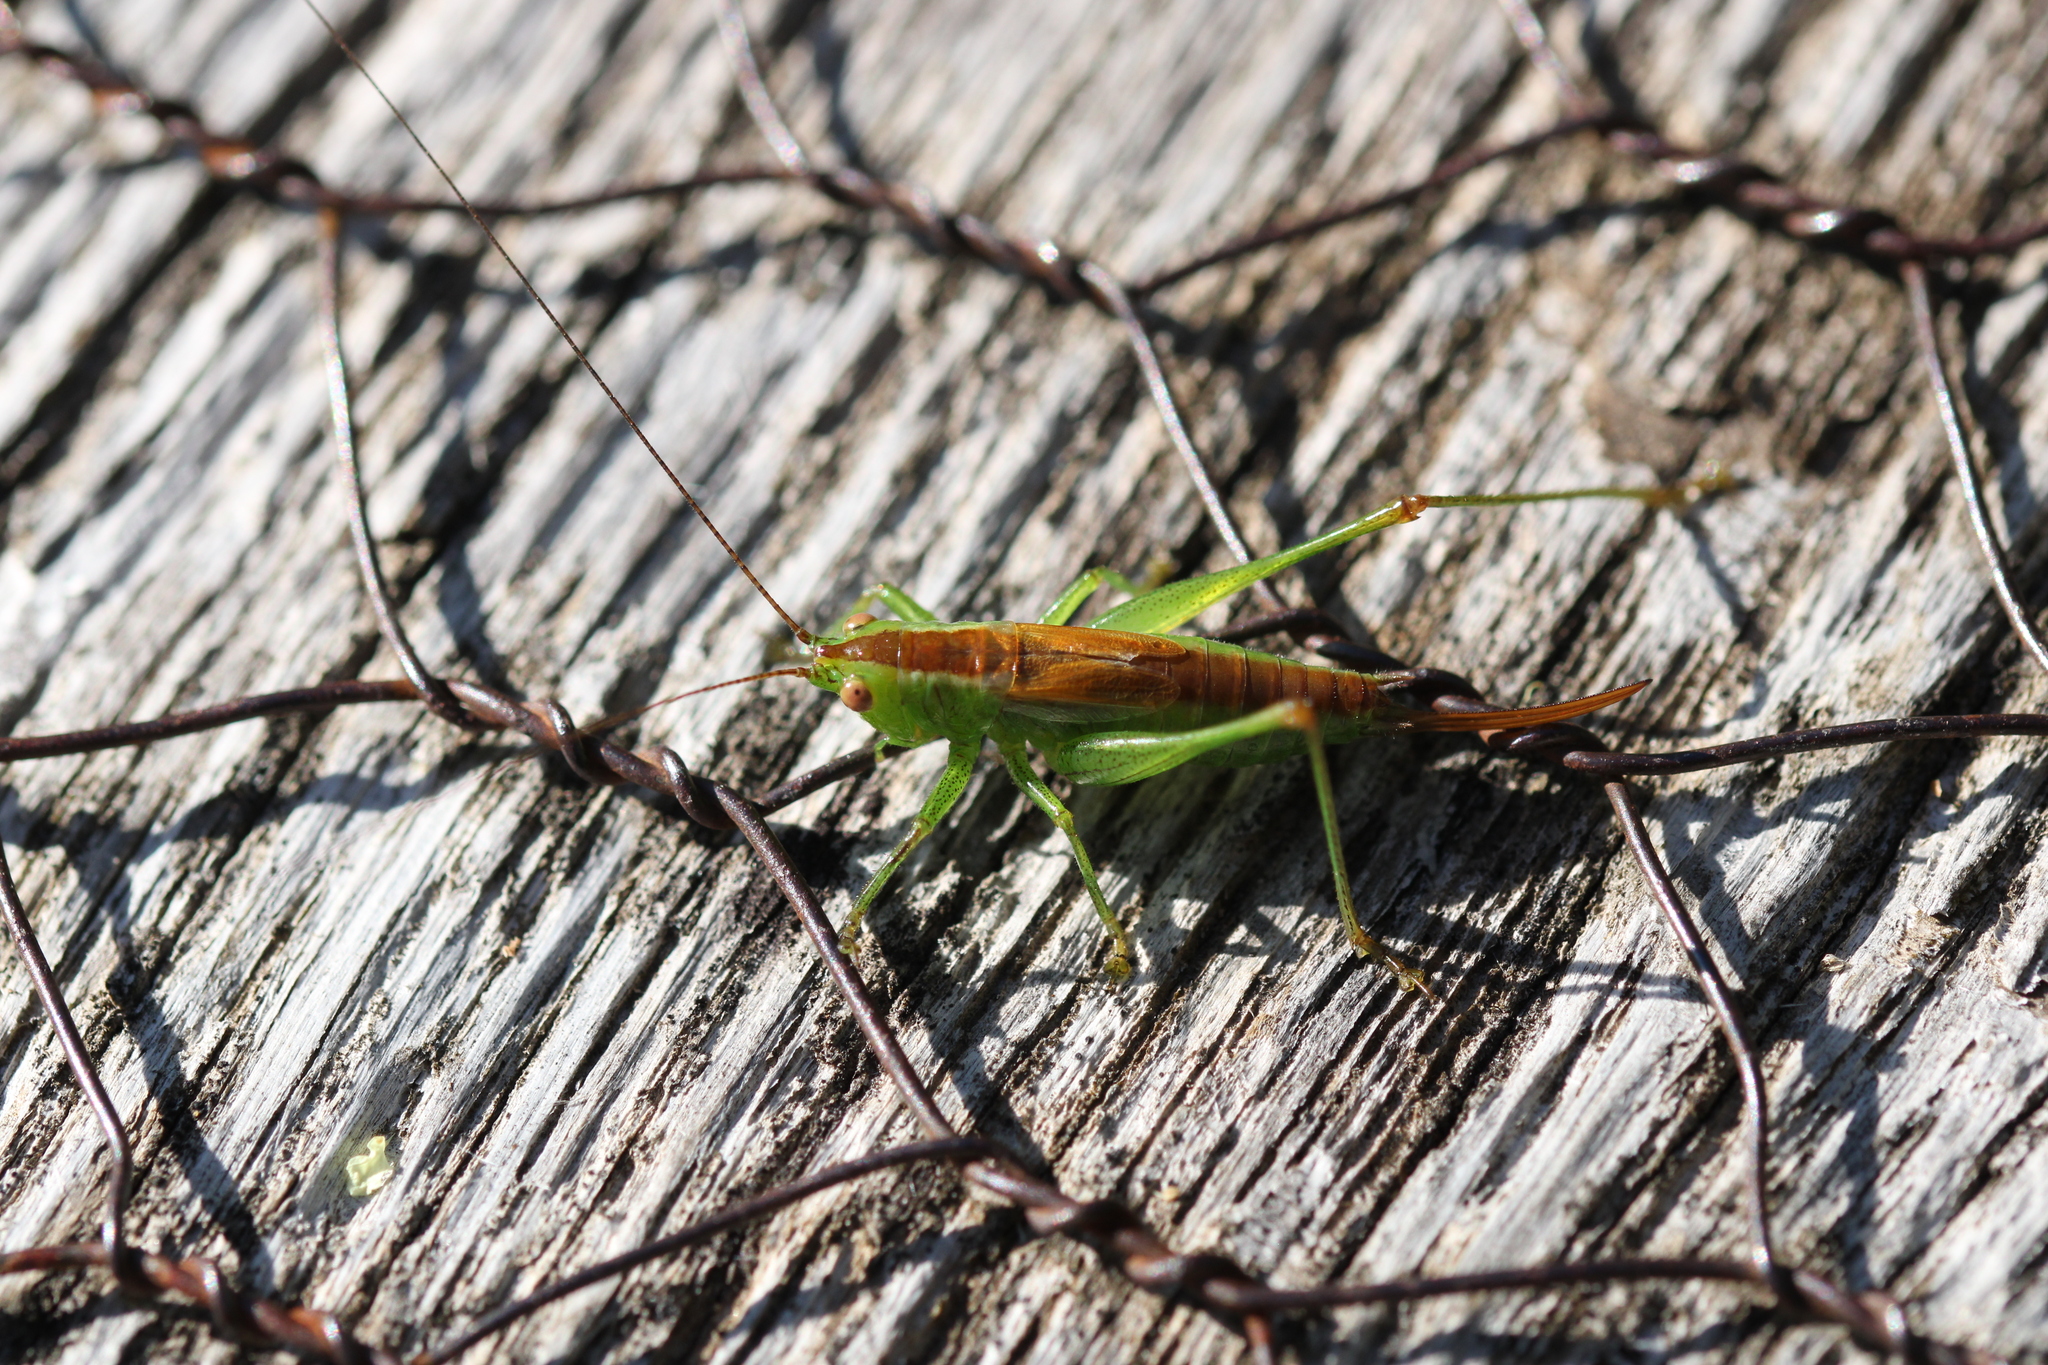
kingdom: Animalia
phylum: Arthropoda
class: Insecta
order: Orthoptera
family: Tettigoniidae
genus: Conocephalus
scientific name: Conocephalus dorsalis
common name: Short-winged conehead
